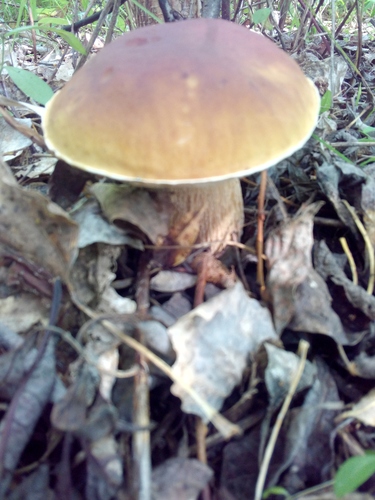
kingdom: Fungi
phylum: Basidiomycota
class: Agaricomycetes
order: Boletales
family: Boletaceae
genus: Boletus
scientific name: Boletus edulis
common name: Cep
